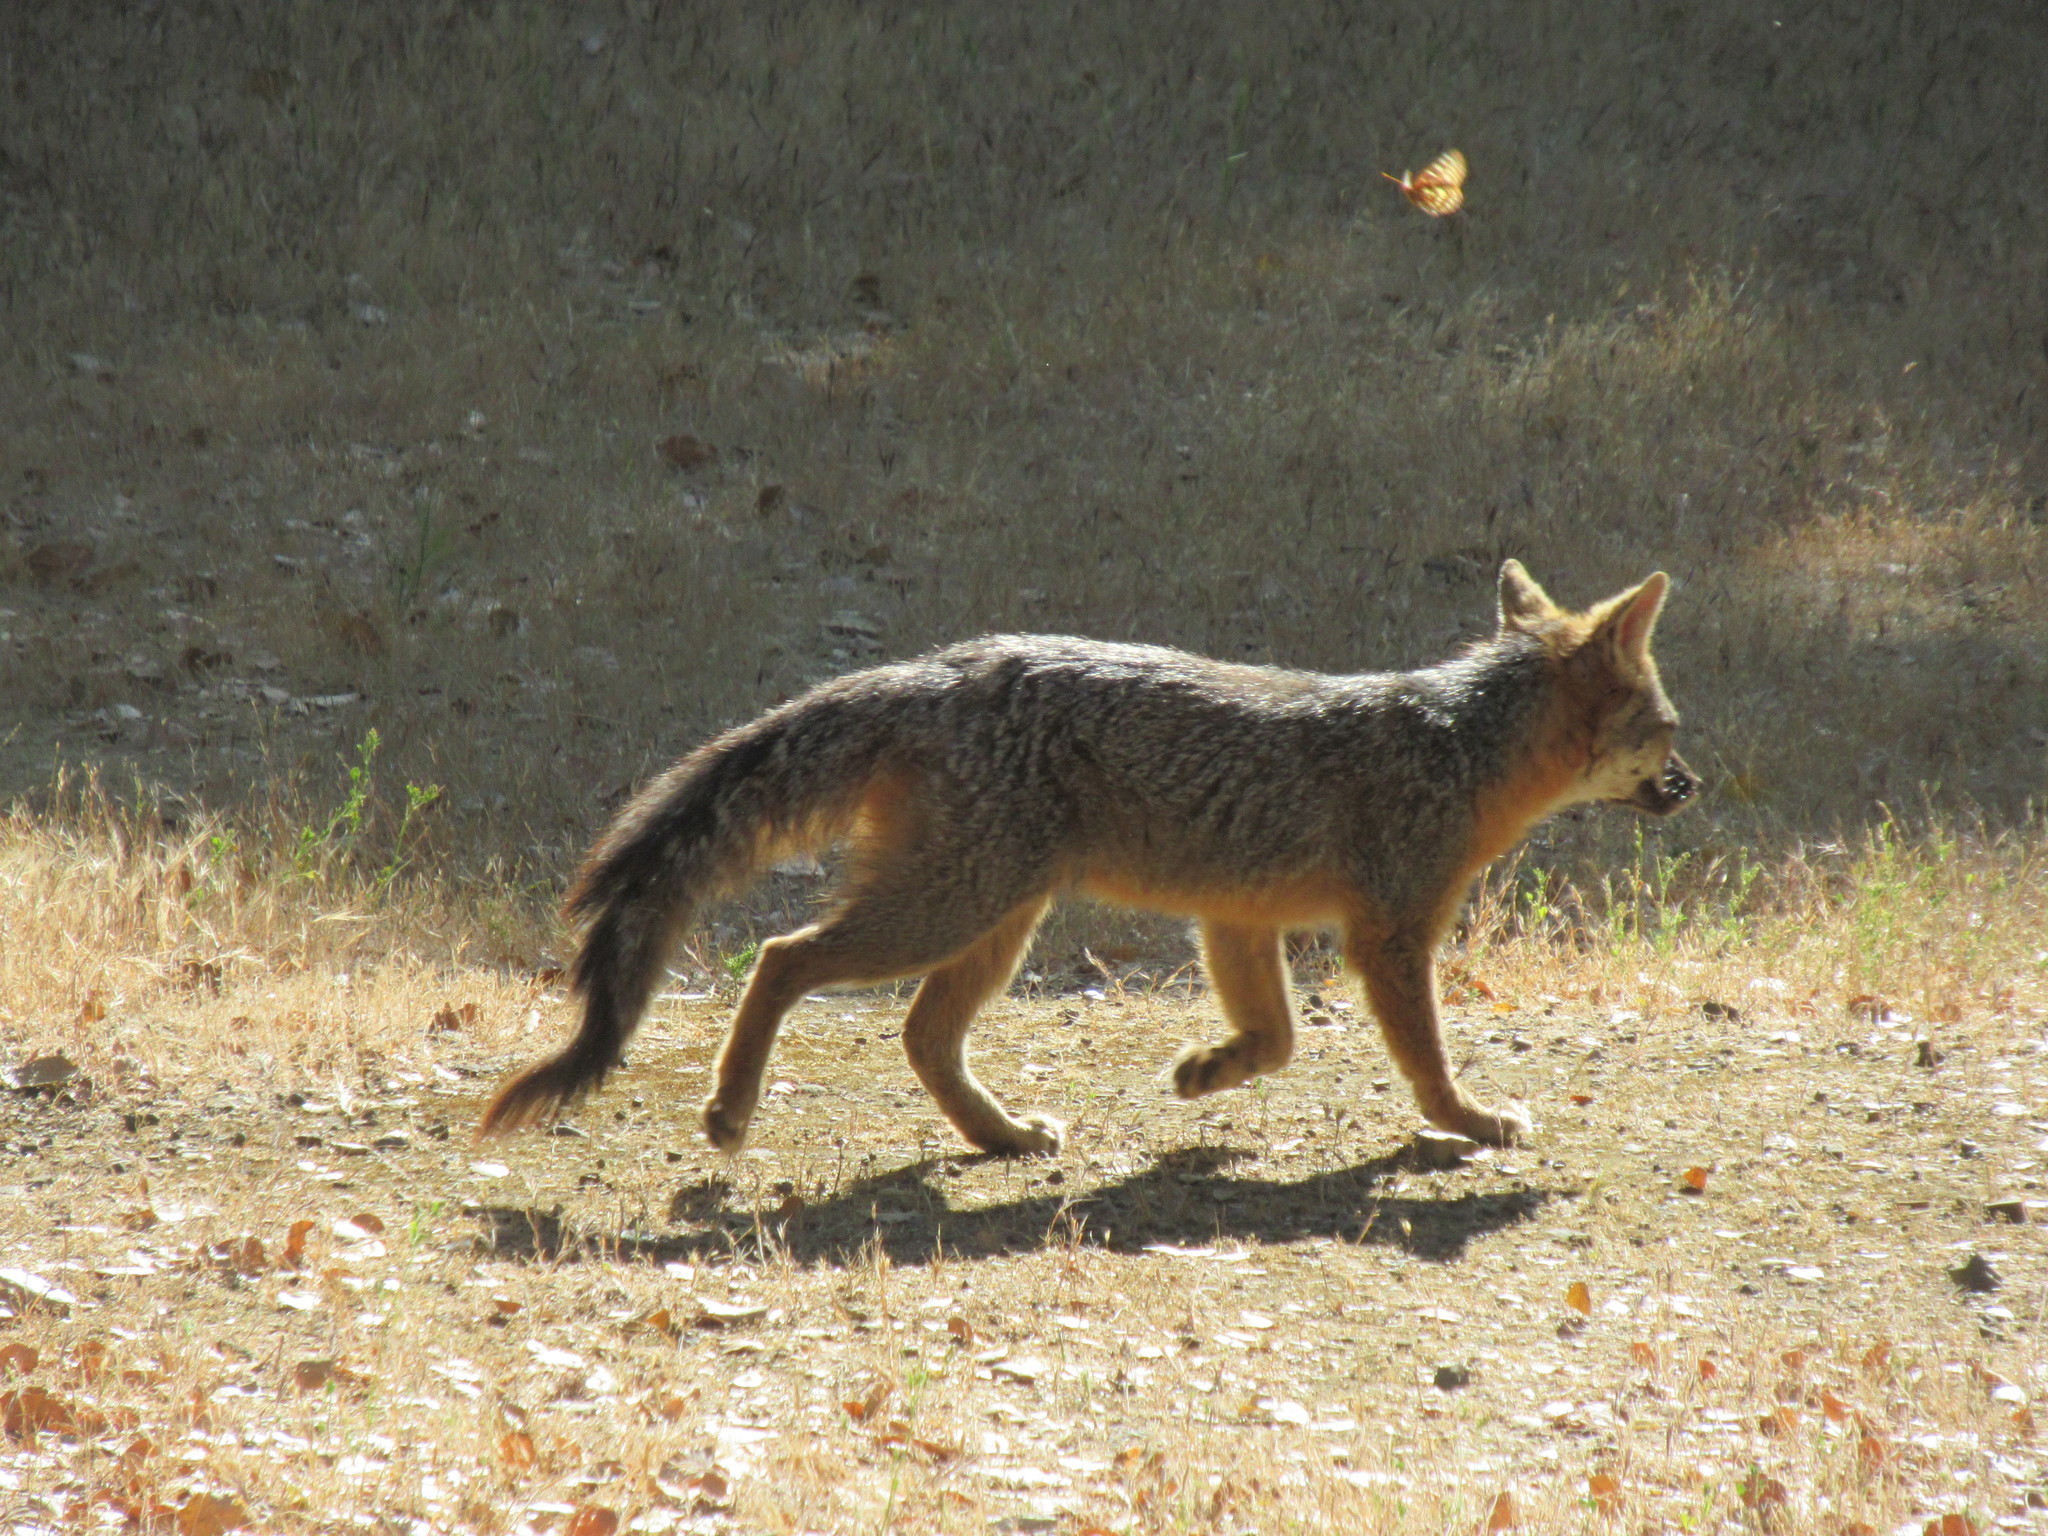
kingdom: Animalia
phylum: Chordata
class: Mammalia
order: Carnivora
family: Canidae
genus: Urocyon
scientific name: Urocyon cinereoargenteus
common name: Gray fox
